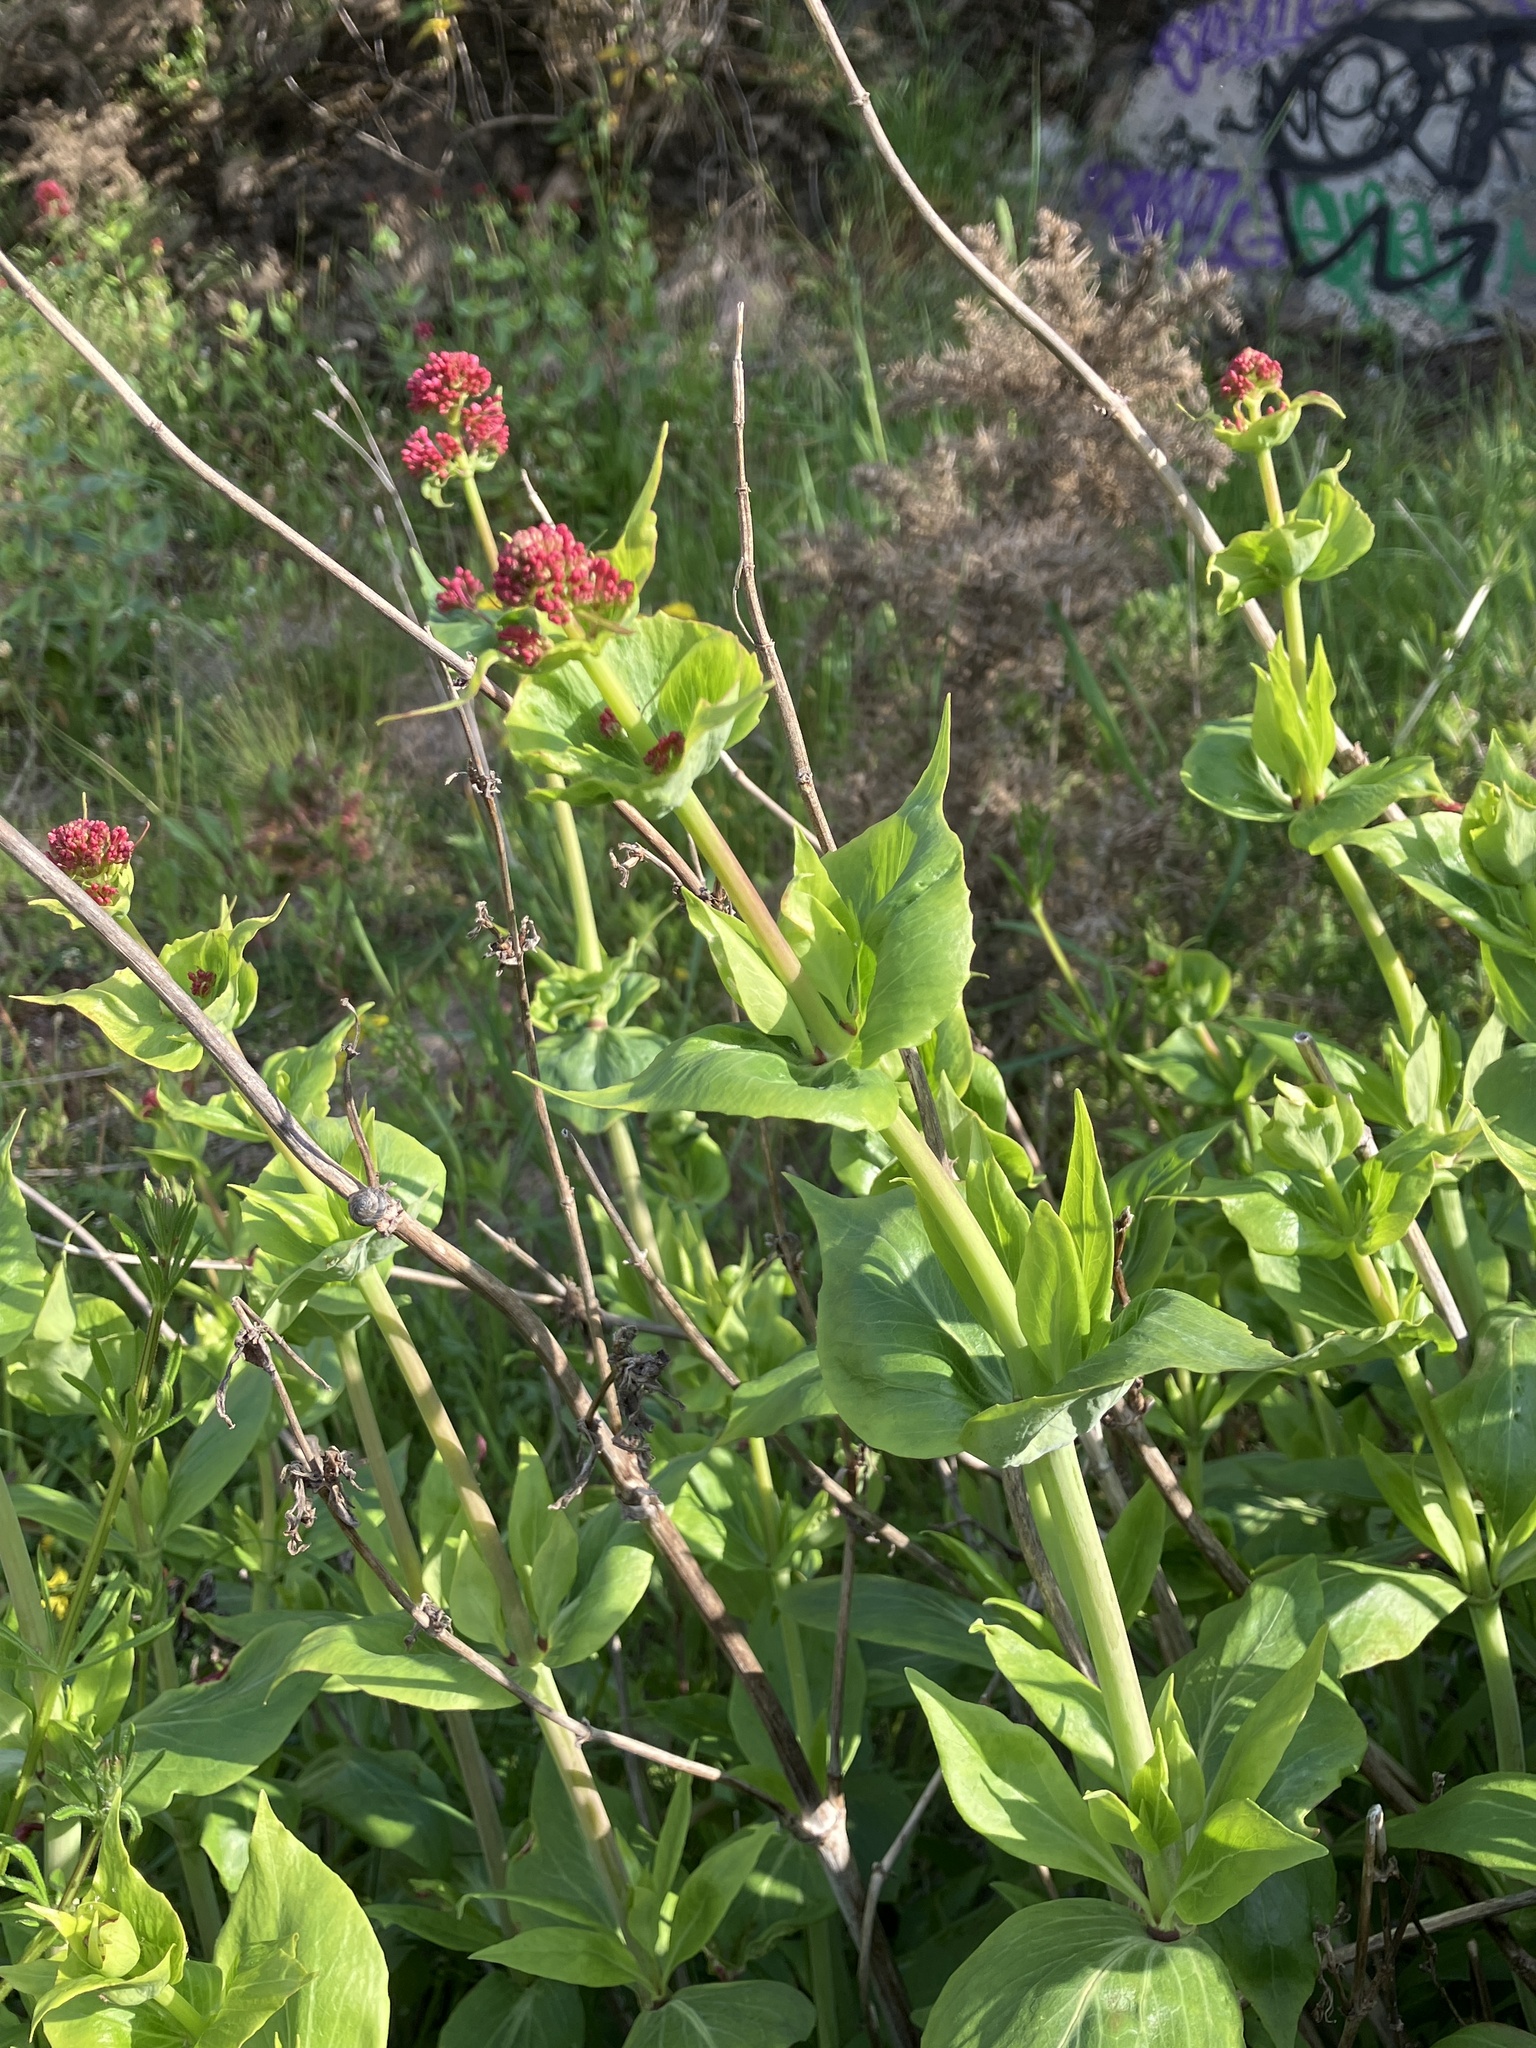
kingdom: Plantae
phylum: Tracheophyta
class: Magnoliopsida
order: Dipsacales
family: Caprifoliaceae
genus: Centranthus
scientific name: Centranthus ruber
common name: Red valerian
